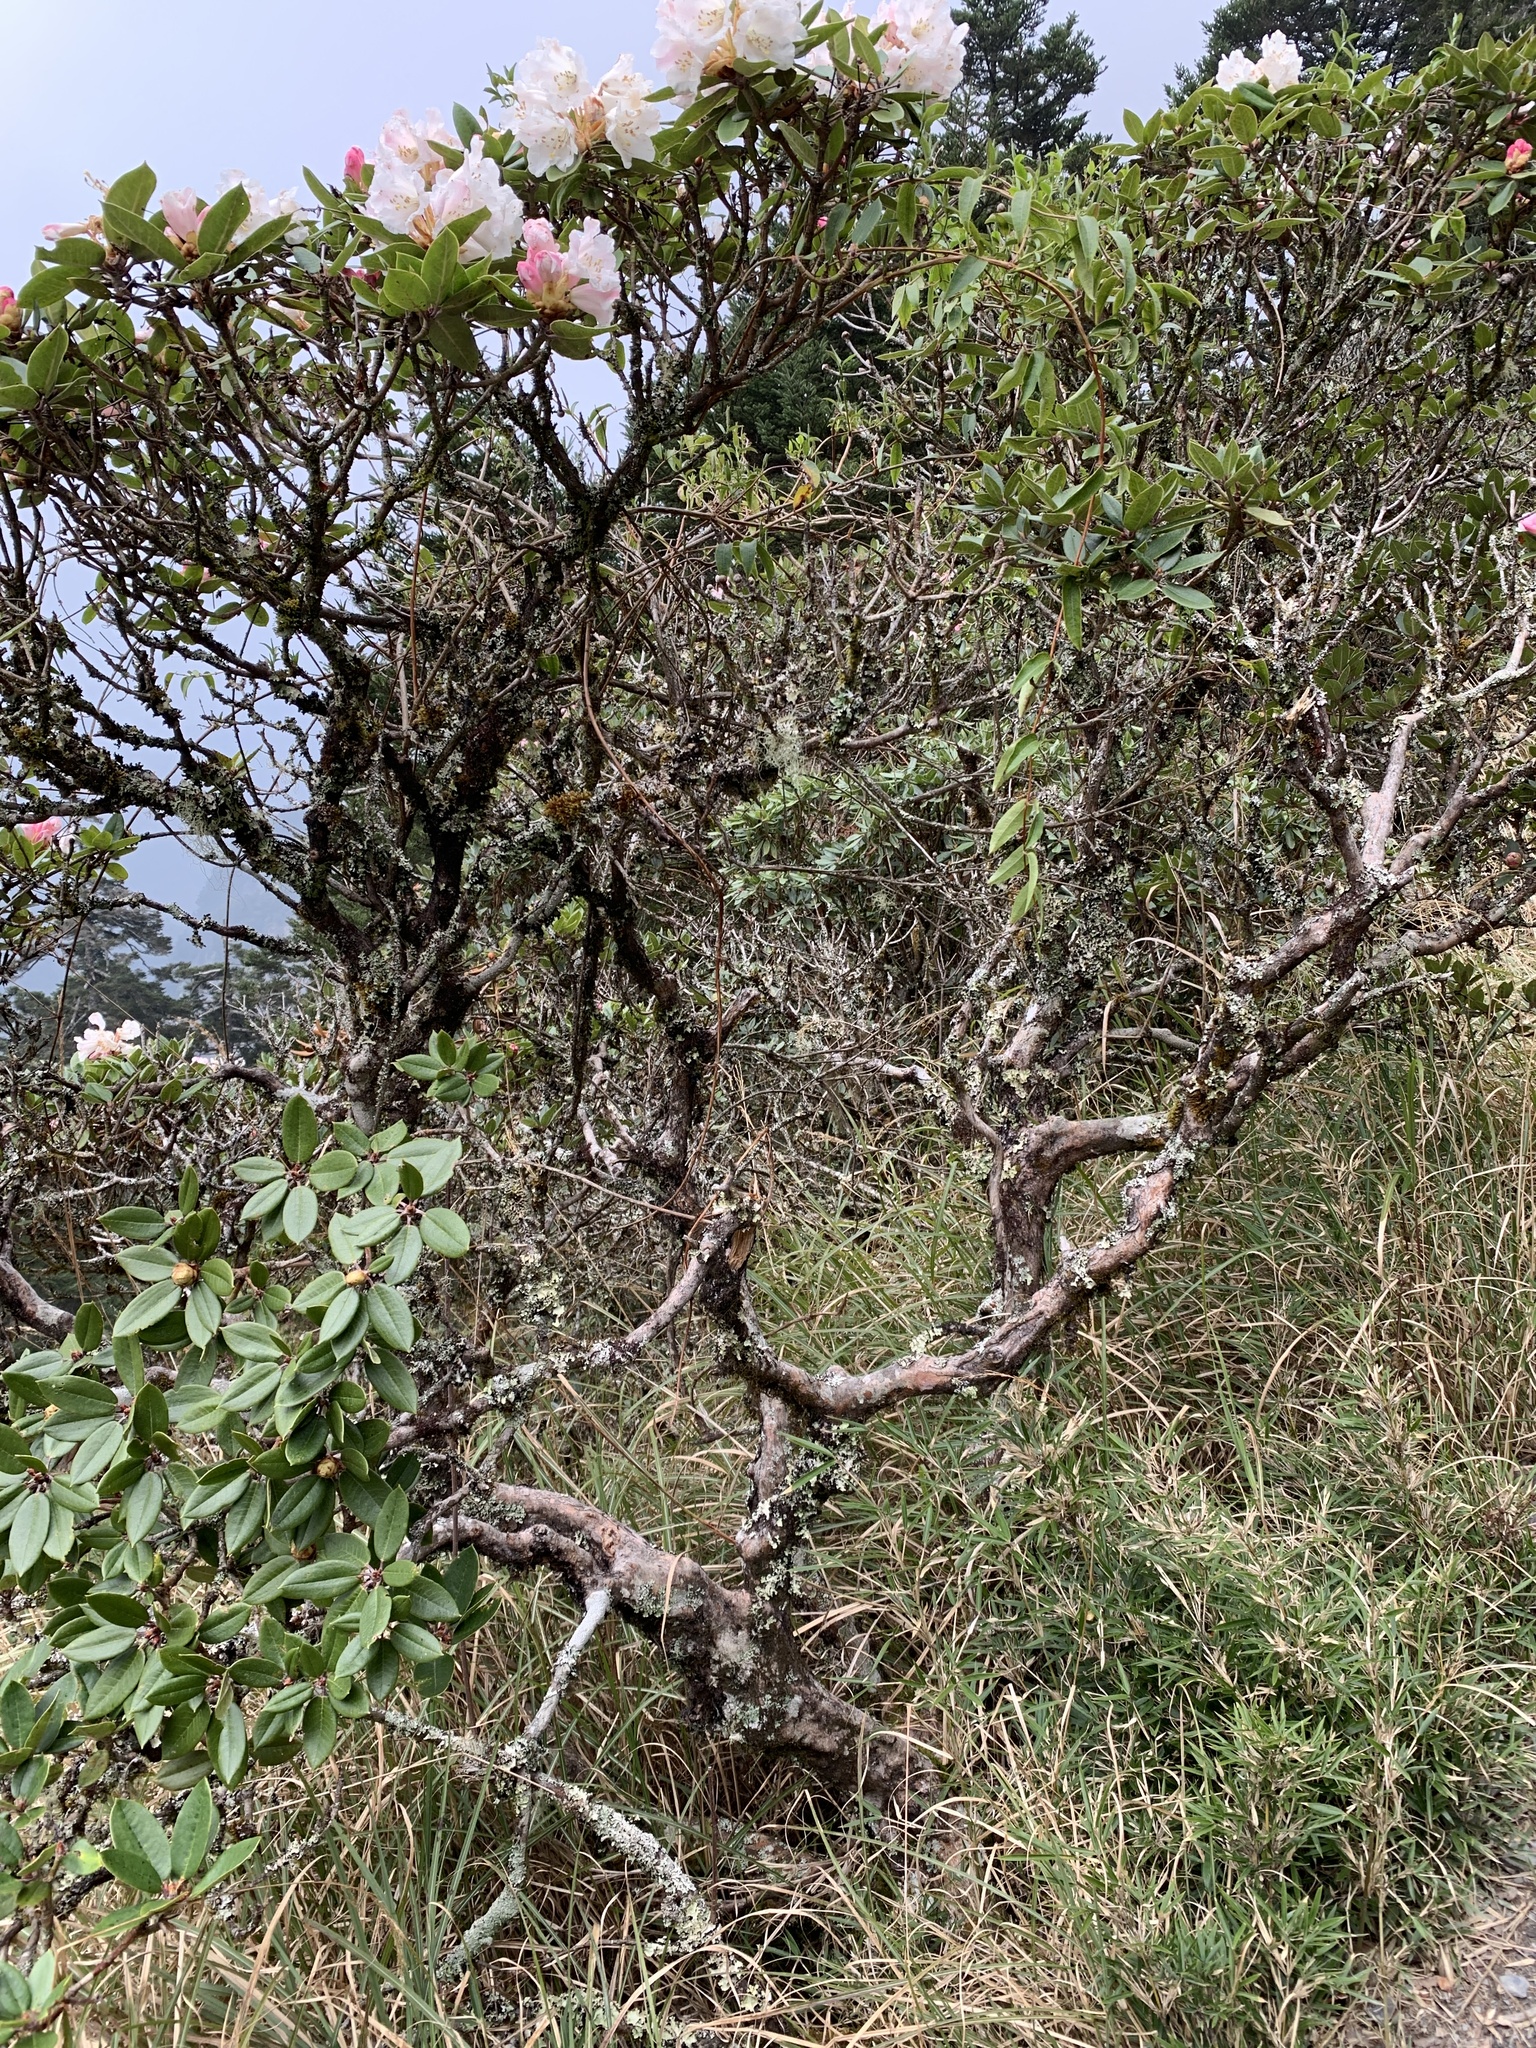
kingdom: Plantae
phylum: Tracheophyta
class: Magnoliopsida
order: Ericales
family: Ericaceae
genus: Rhododendron
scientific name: Rhododendron pseudochrysanthum
